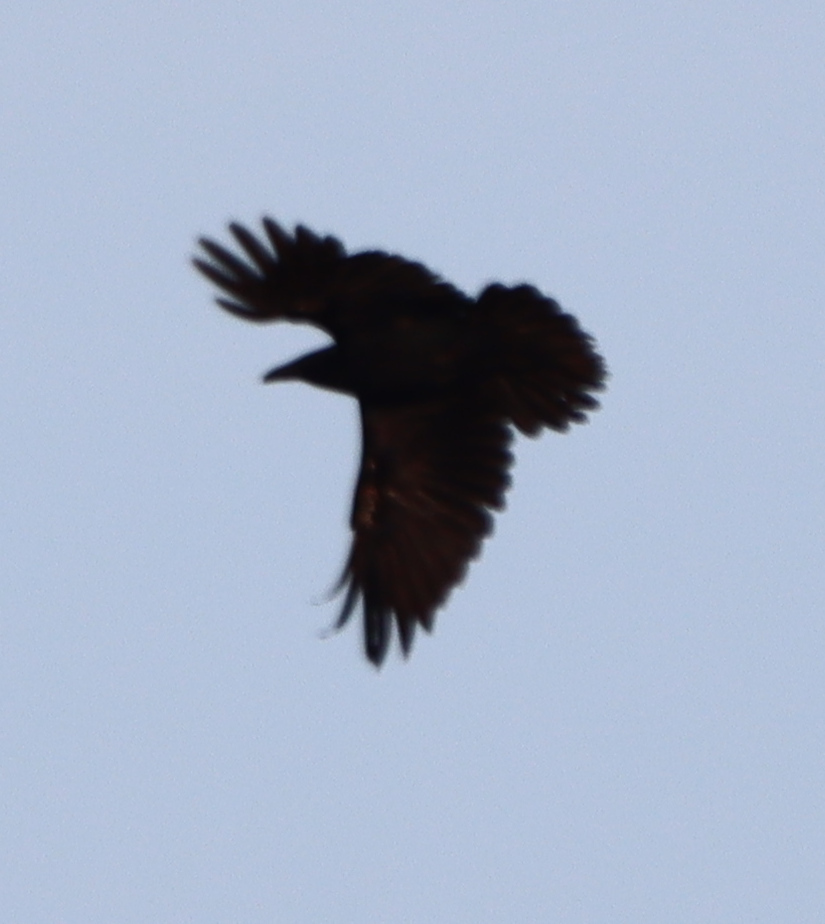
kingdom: Animalia
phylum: Chordata
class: Aves
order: Passeriformes
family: Corvidae
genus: Corvus
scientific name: Corvus corax
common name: Common raven
